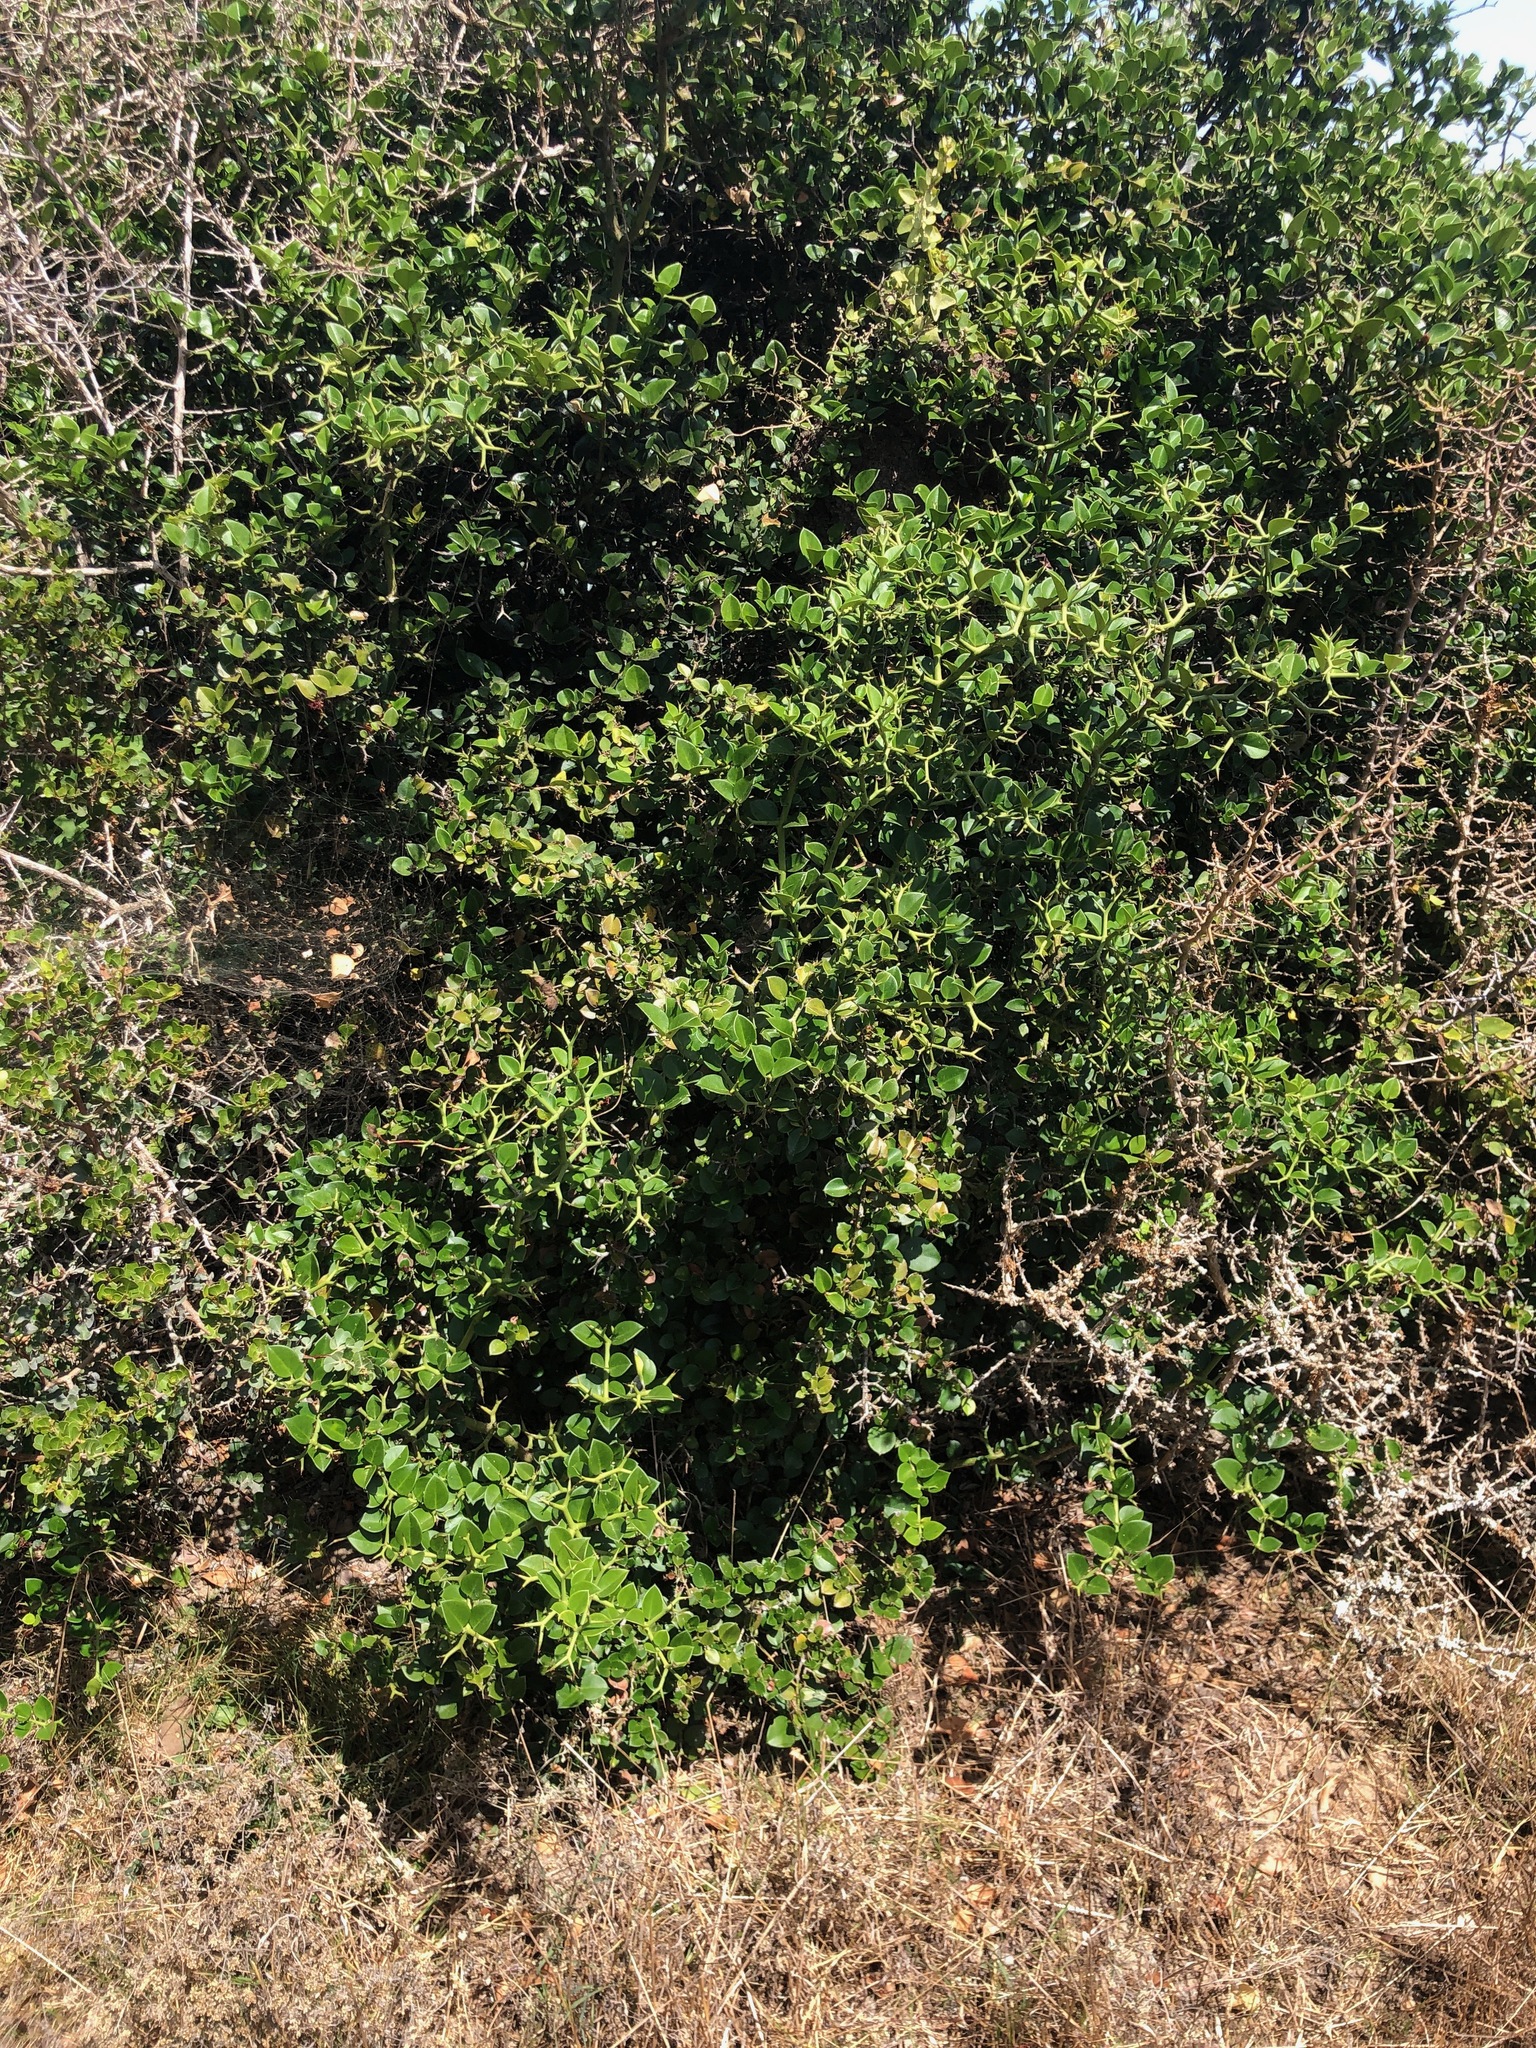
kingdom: Plantae
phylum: Tracheophyta
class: Magnoliopsida
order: Gentianales
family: Apocynaceae
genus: Carissa
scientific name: Carissa bispinosa
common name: Forest num-num
